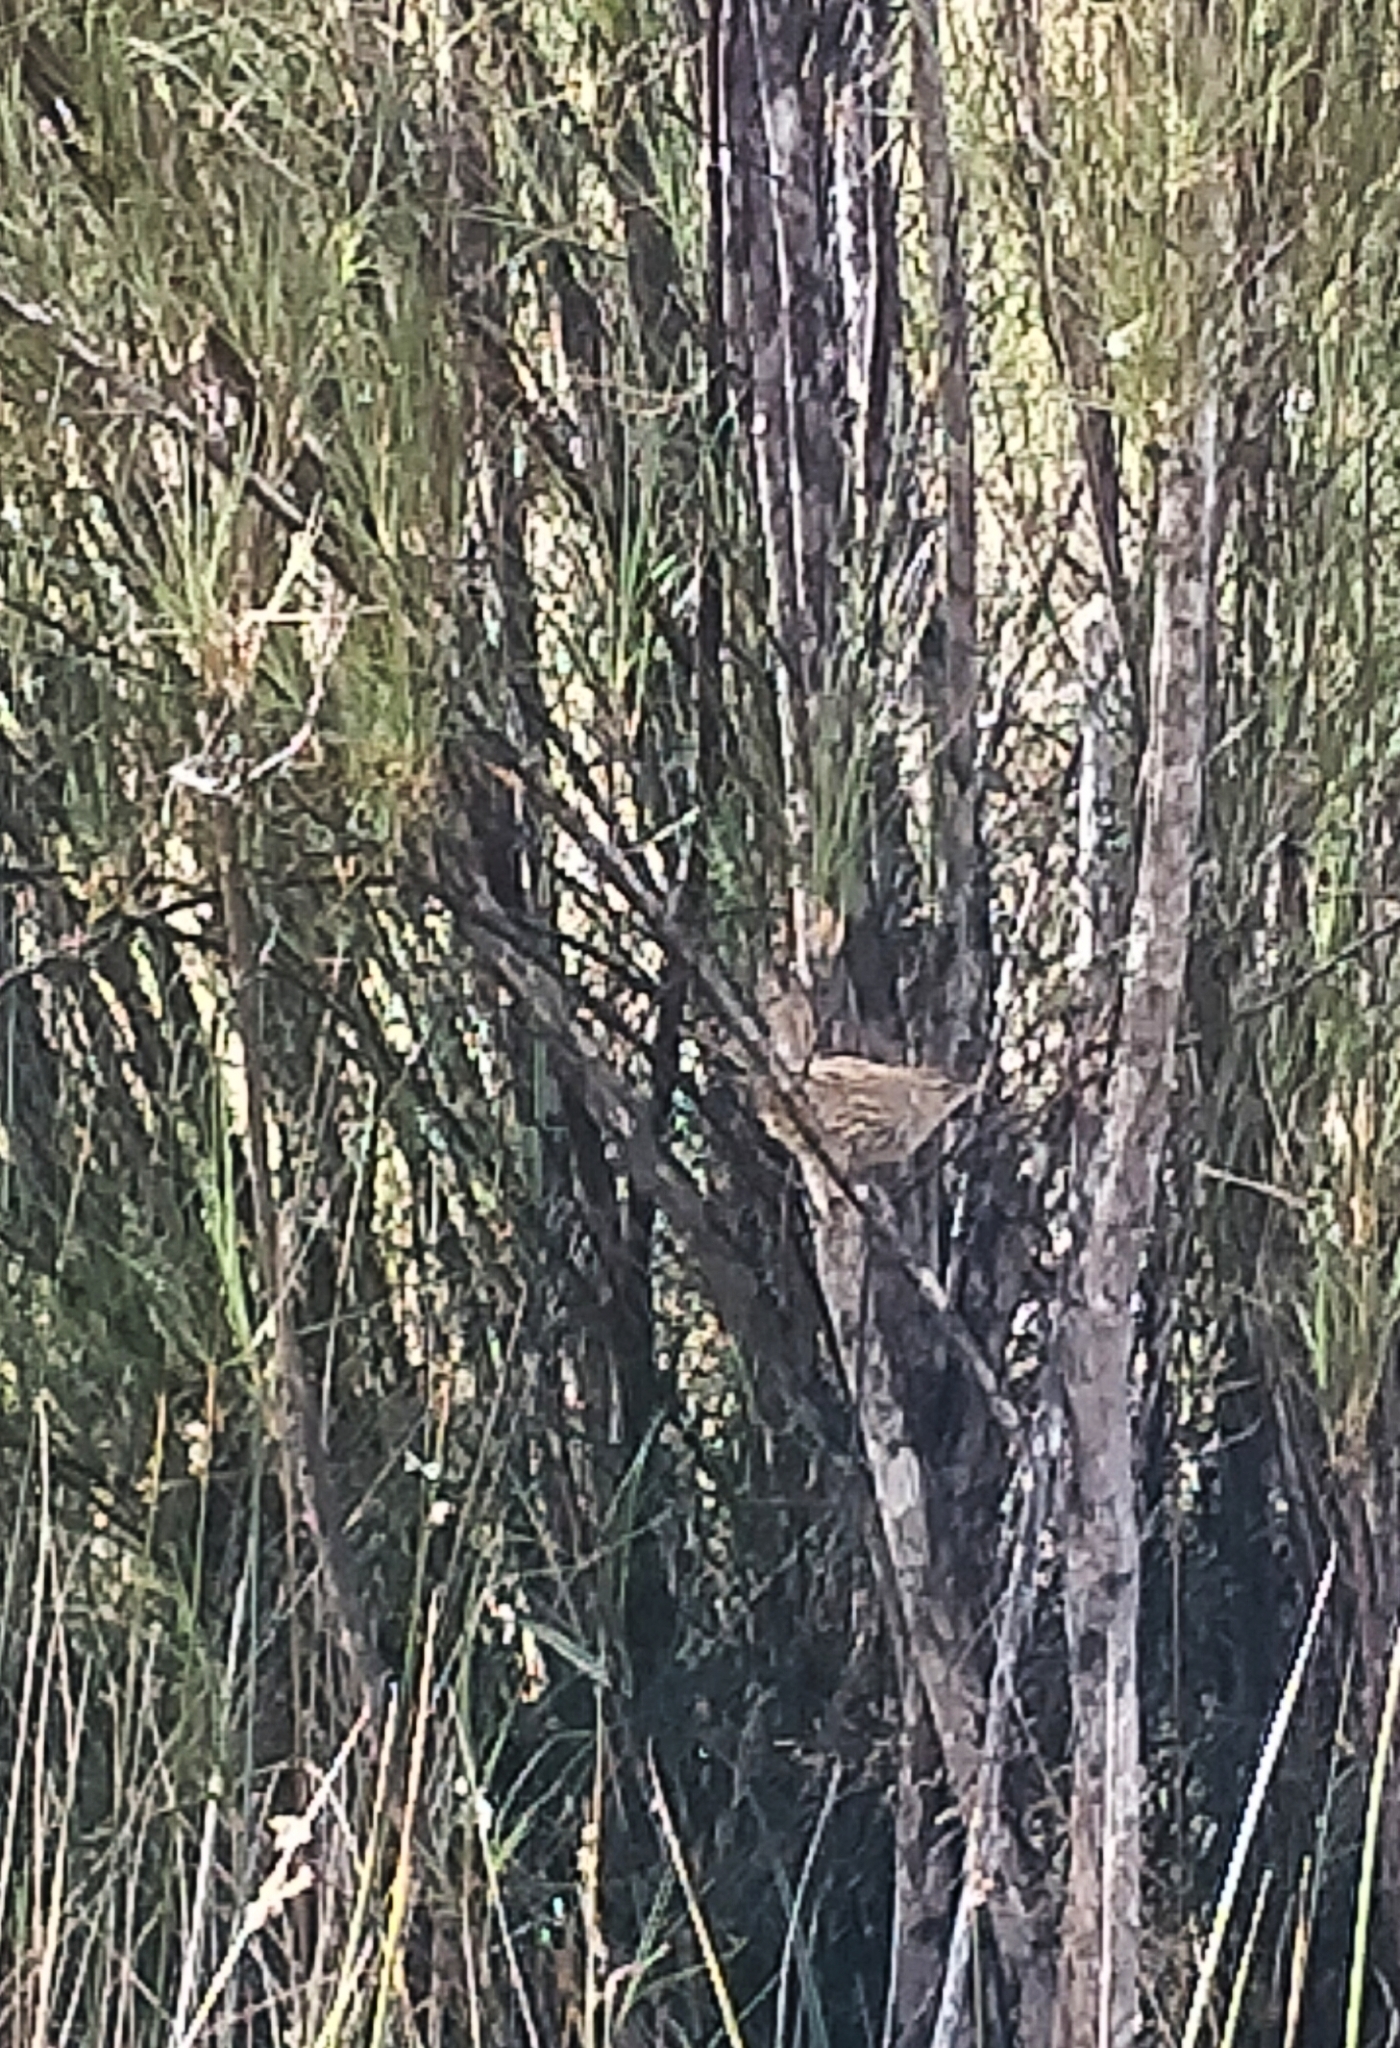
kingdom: Animalia
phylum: Chordata
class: Aves
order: Passeriformes
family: Locustellidae
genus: Poodytes
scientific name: Poodytes punctatus
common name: New zealand fernbird
